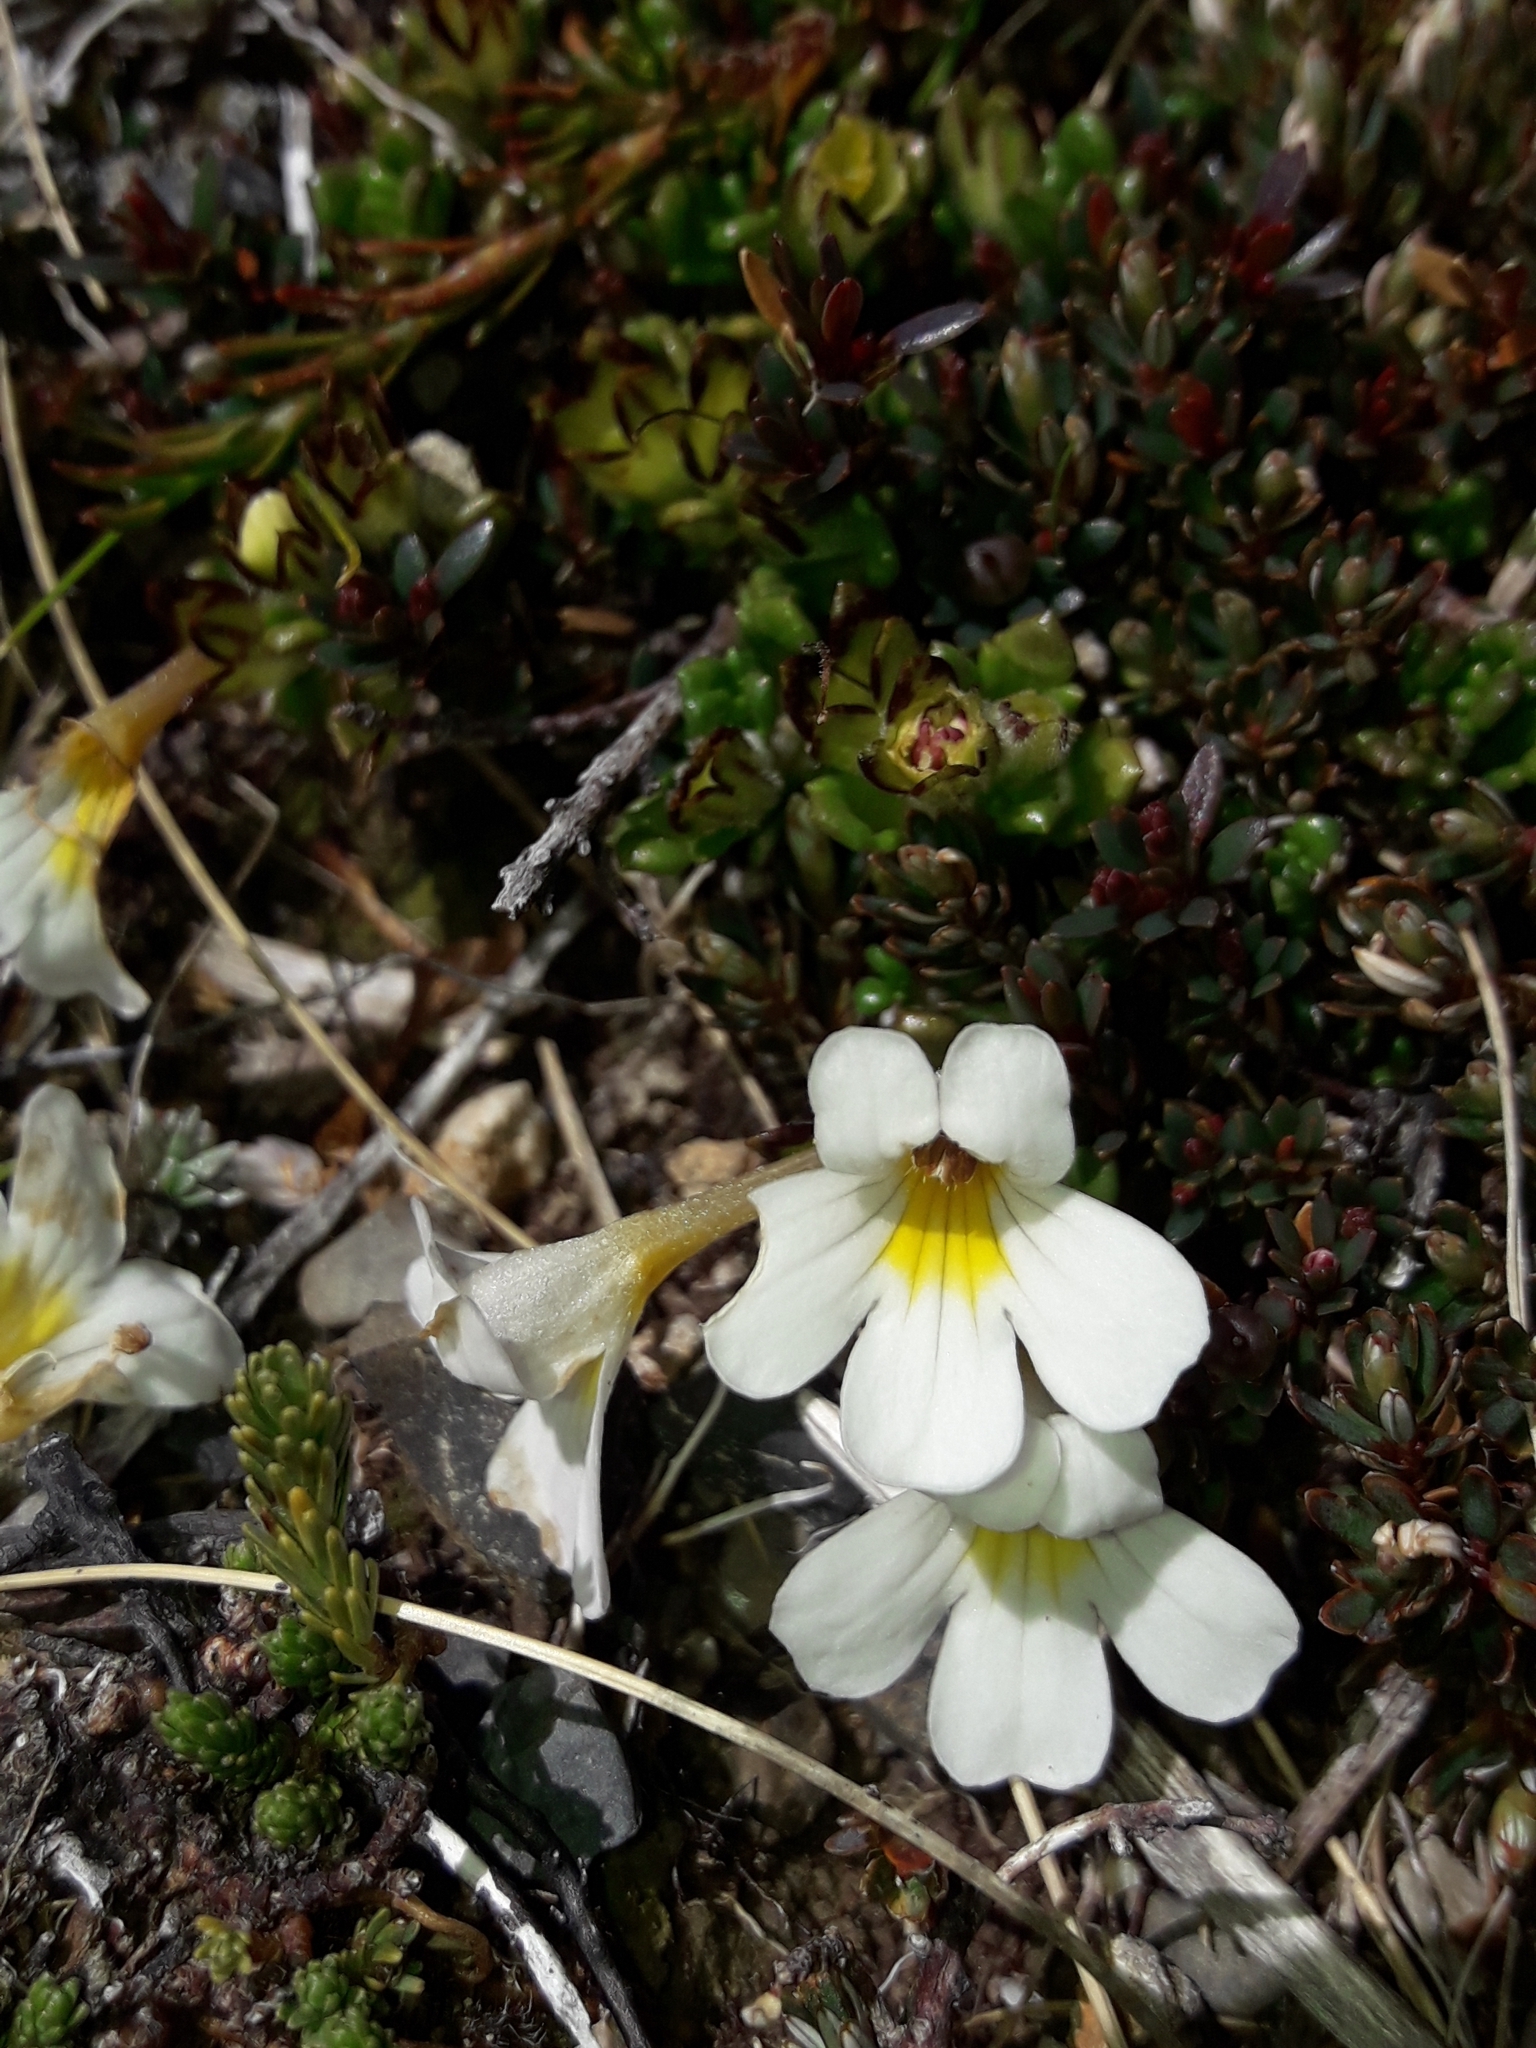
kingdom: Plantae
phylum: Tracheophyta
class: Magnoliopsida
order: Lamiales
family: Orobanchaceae
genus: Euphrasia
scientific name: Euphrasia revoluta
